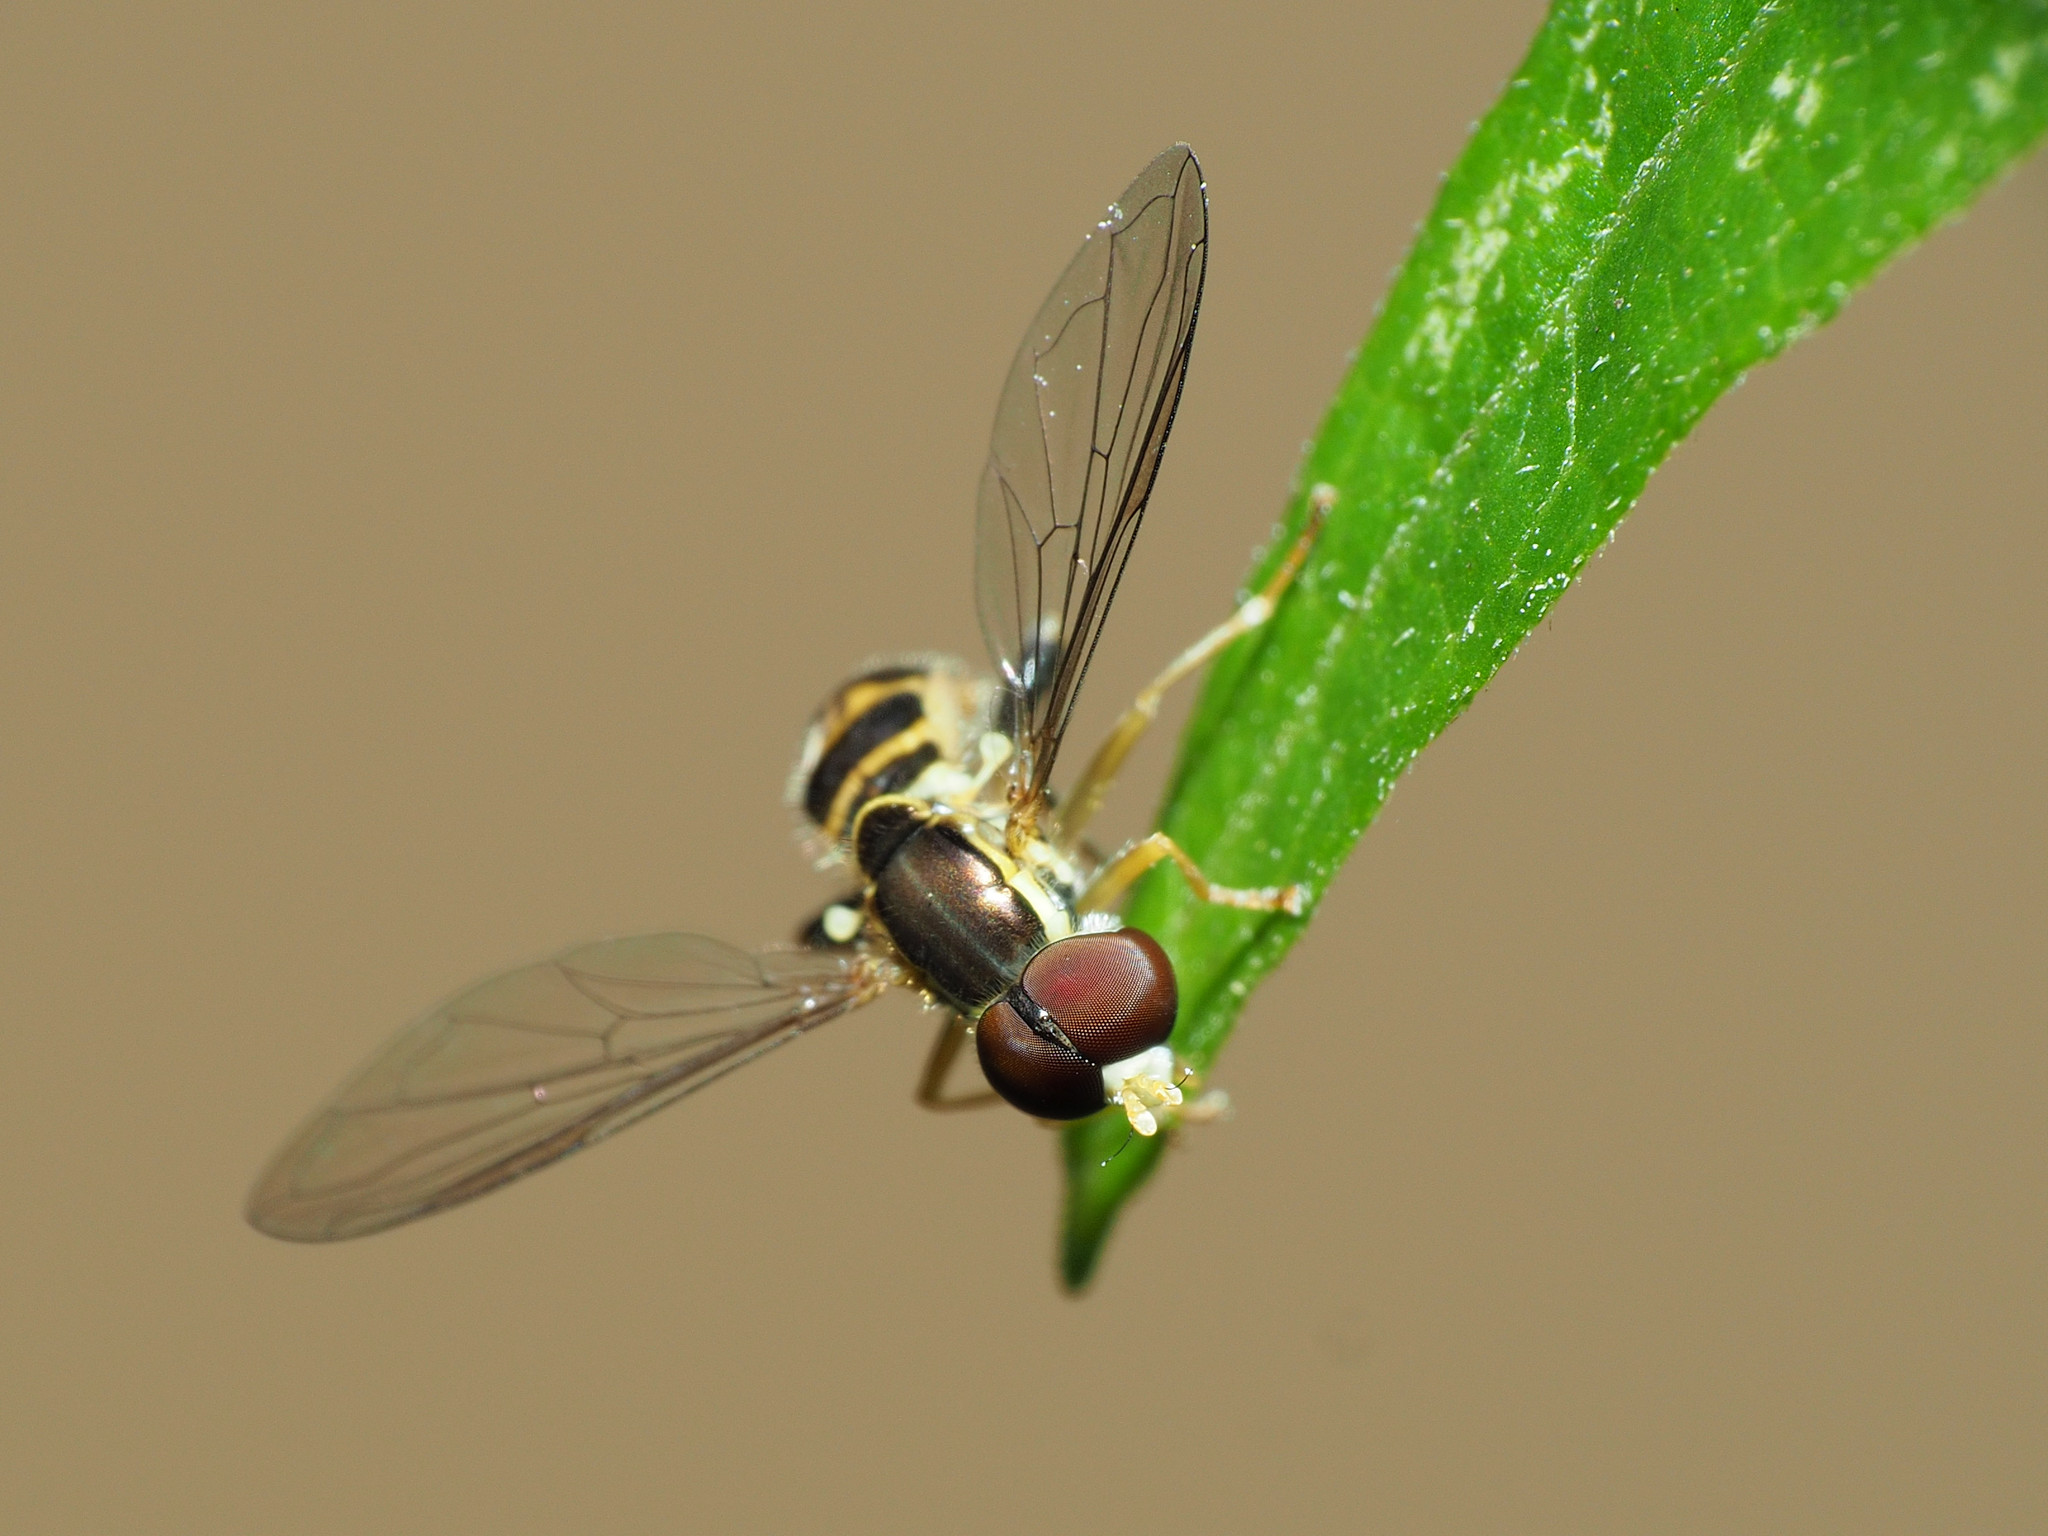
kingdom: Animalia
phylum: Arthropoda
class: Insecta
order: Diptera
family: Syrphidae
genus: Toxomerus
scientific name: Toxomerus geminatus
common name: Eastern calligrapher
